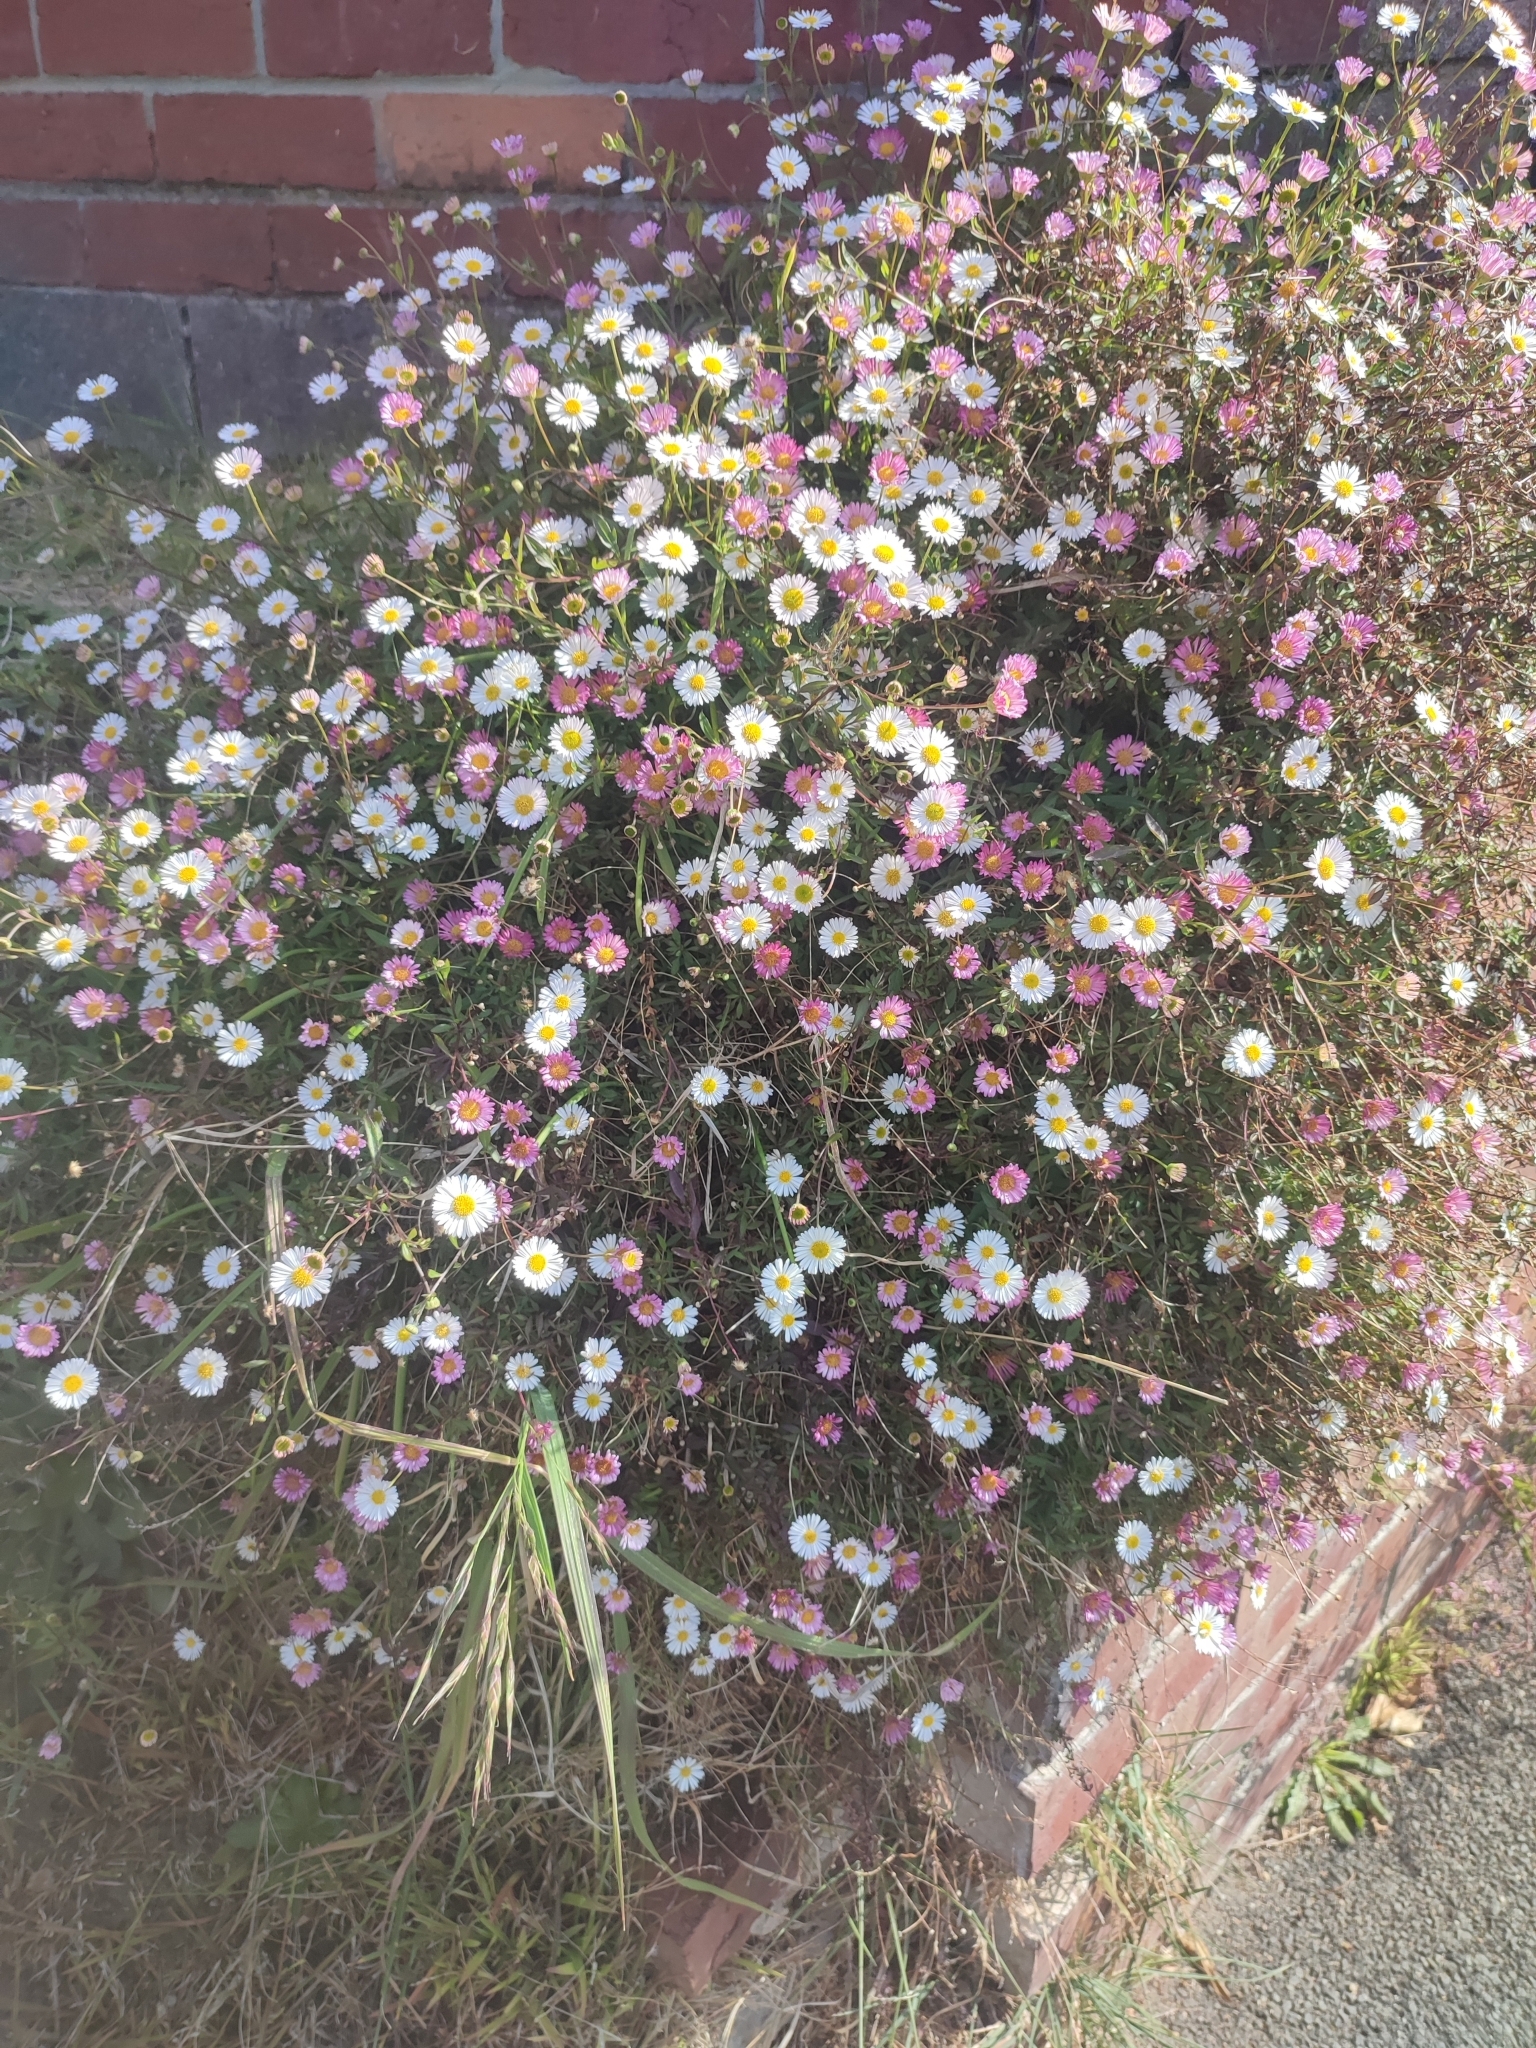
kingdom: Plantae
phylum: Tracheophyta
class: Magnoliopsida
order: Asterales
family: Asteraceae
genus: Erigeron
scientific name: Erigeron karvinskianus
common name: Mexican fleabane
